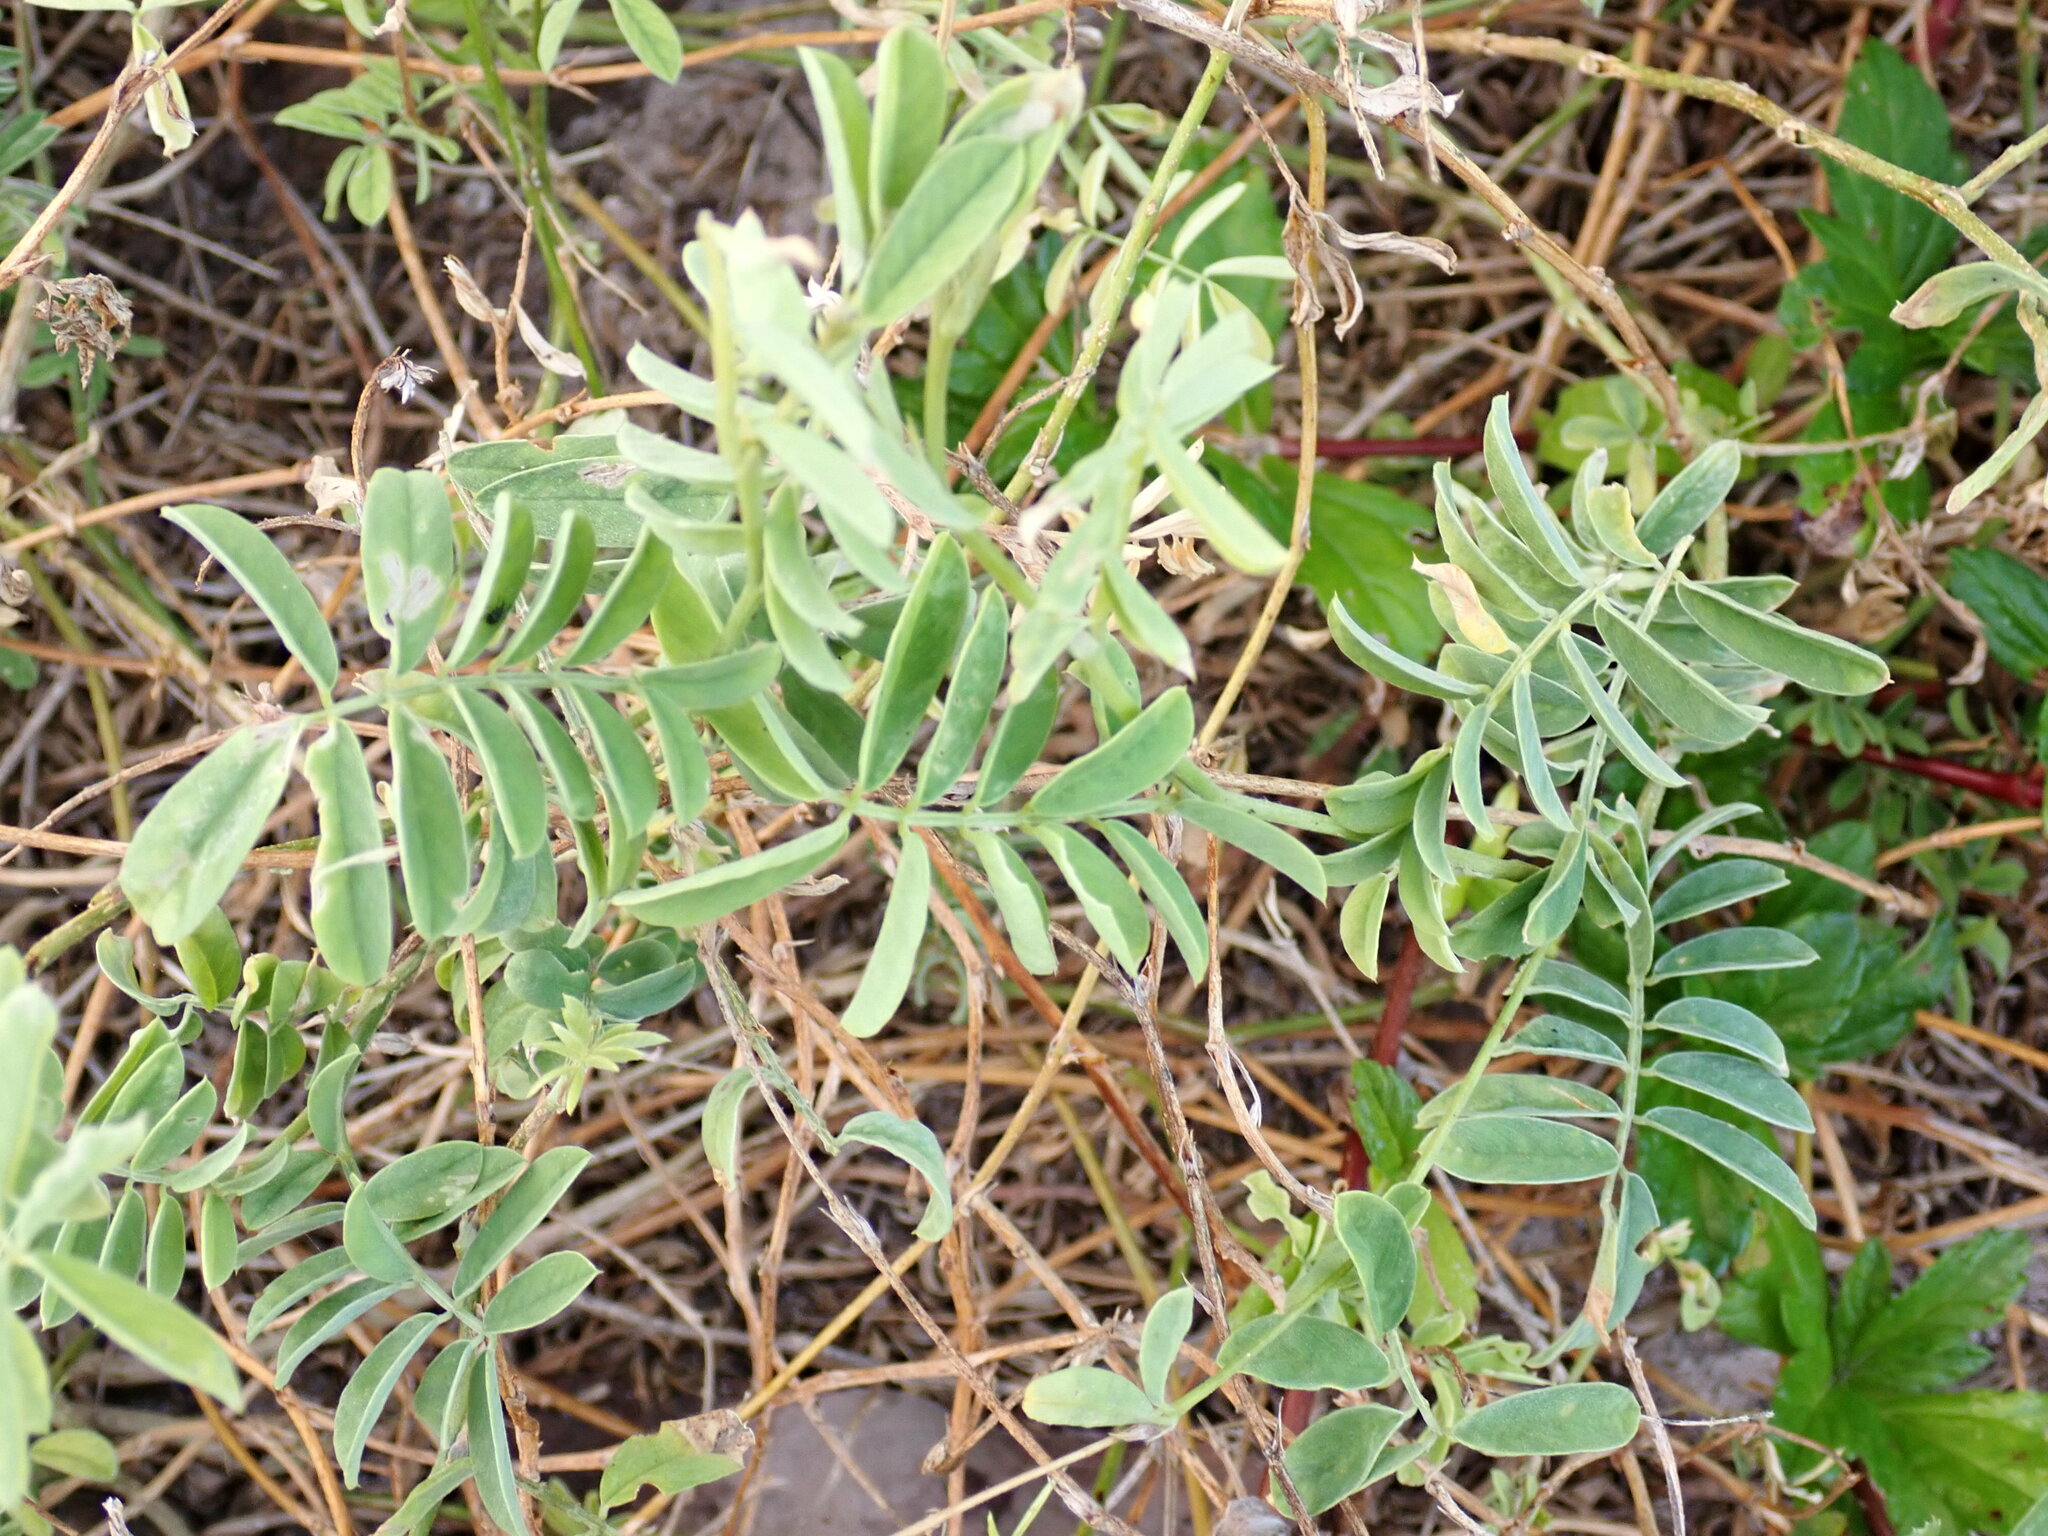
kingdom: Plantae
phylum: Tracheophyta
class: Magnoliopsida
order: Fabales
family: Fabaceae
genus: Tephrosia
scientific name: Tephrosia cinerea
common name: Ashen hoarypea
